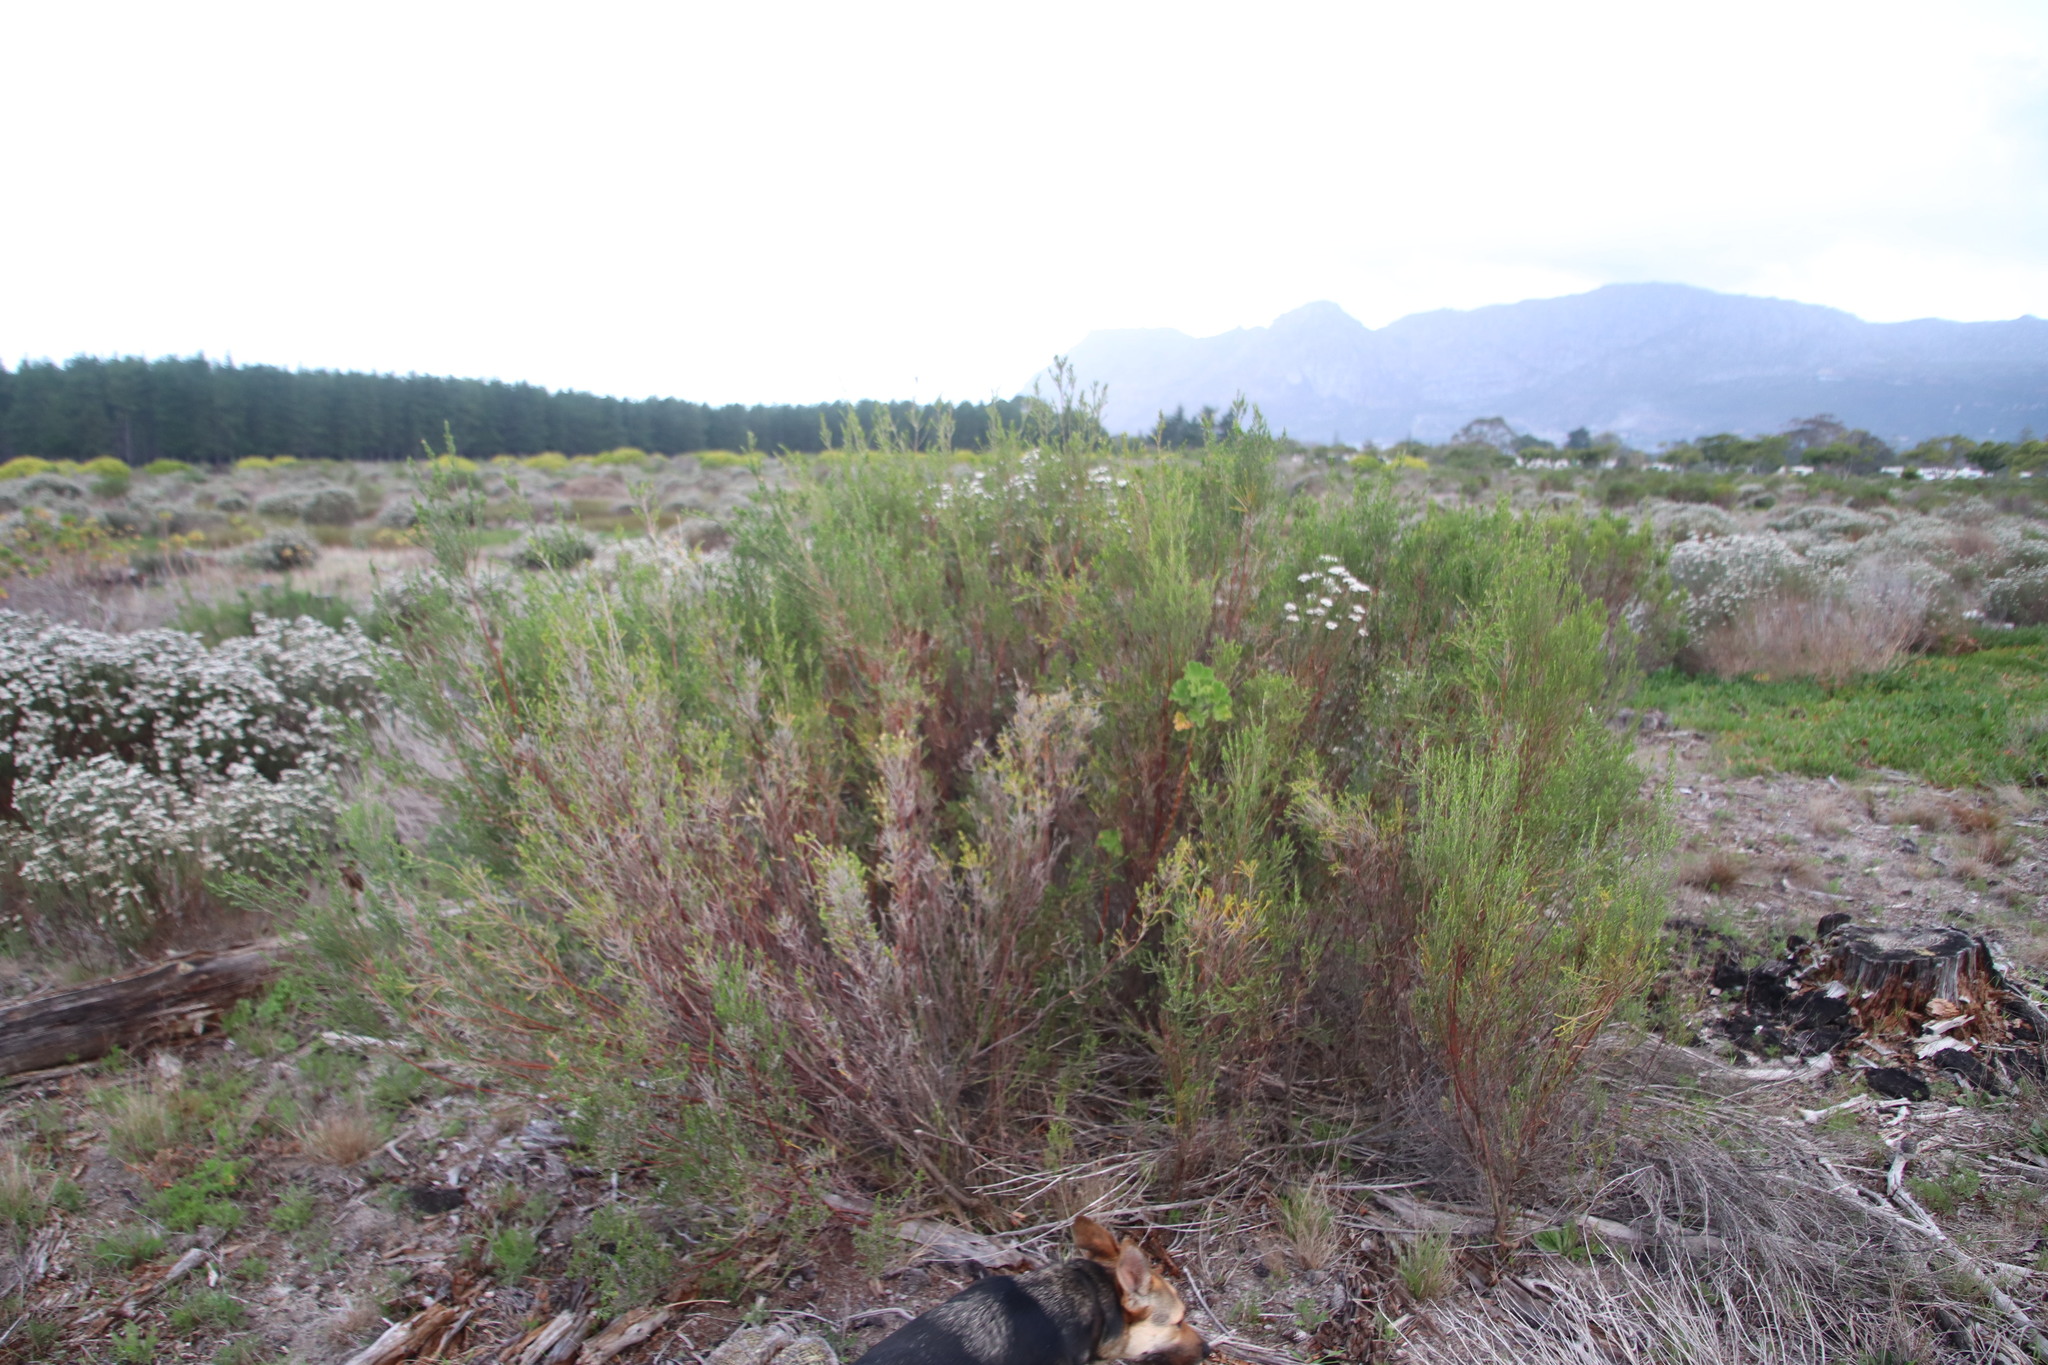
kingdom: Plantae
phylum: Tracheophyta
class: Magnoliopsida
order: Malvales
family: Thymelaeaceae
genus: Passerina
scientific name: Passerina corymbosa
